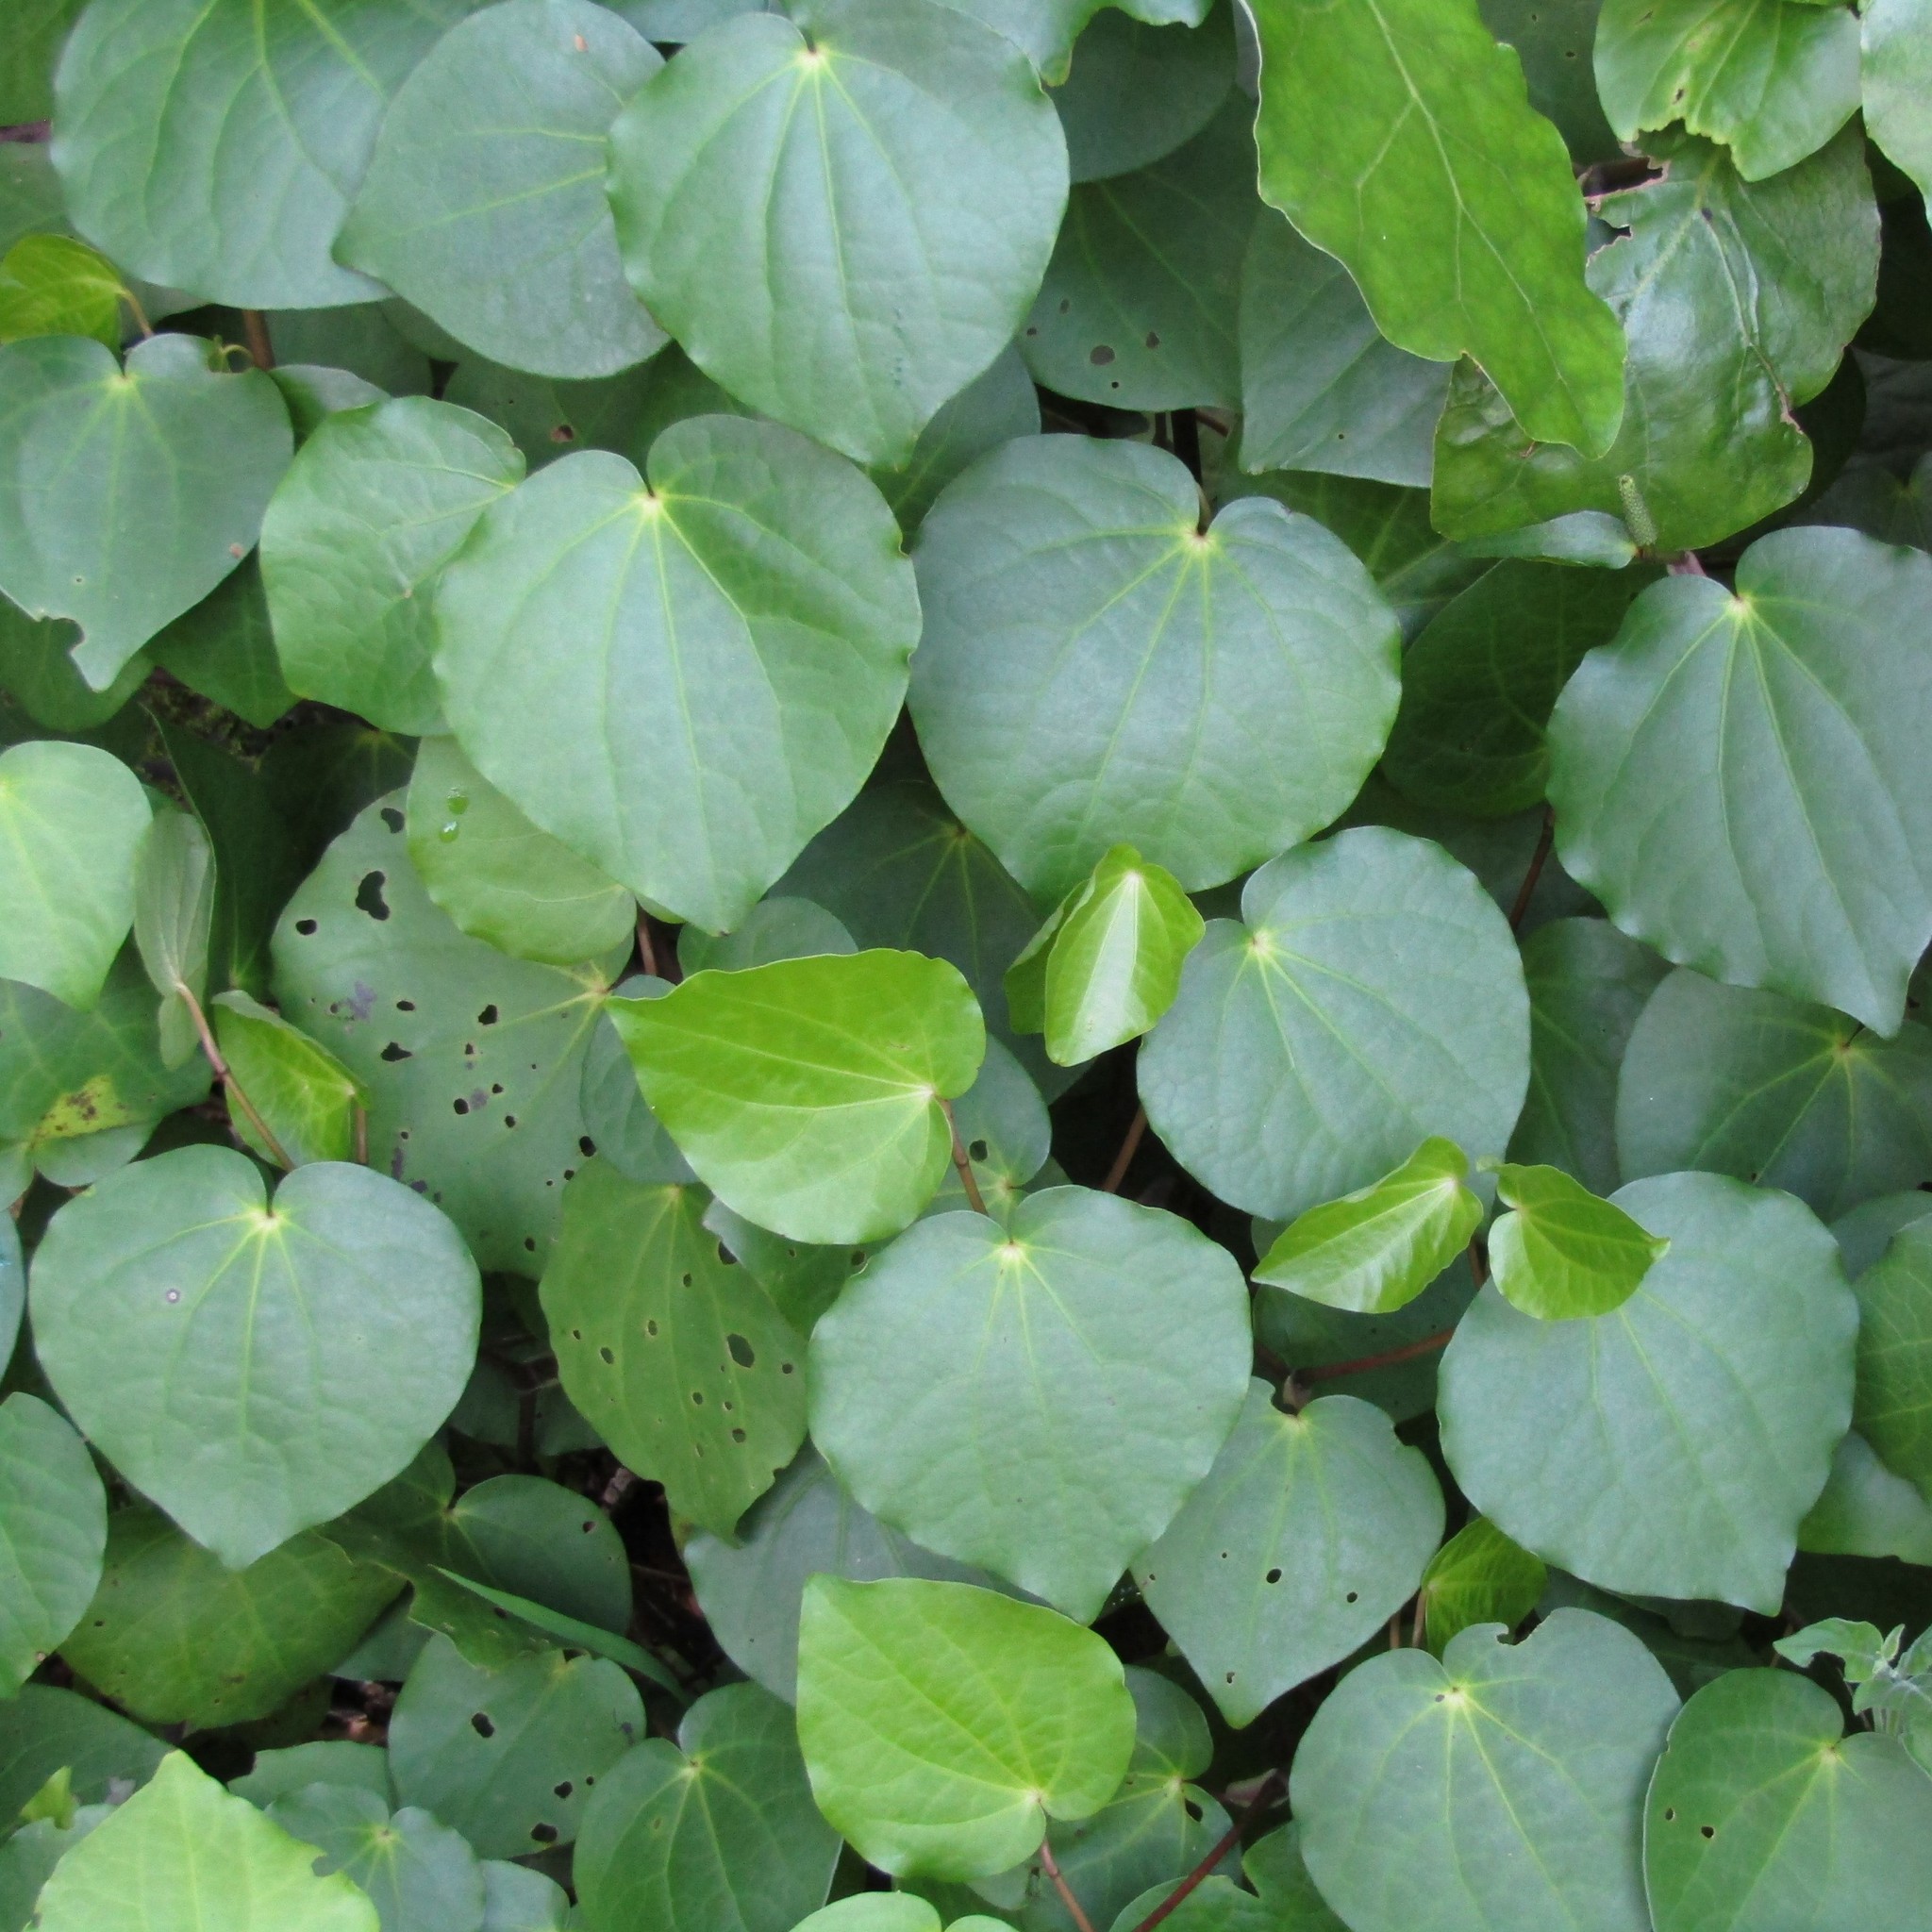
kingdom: Plantae
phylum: Tracheophyta
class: Magnoliopsida
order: Piperales
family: Piperaceae
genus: Macropiper
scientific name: Macropiper excelsum
